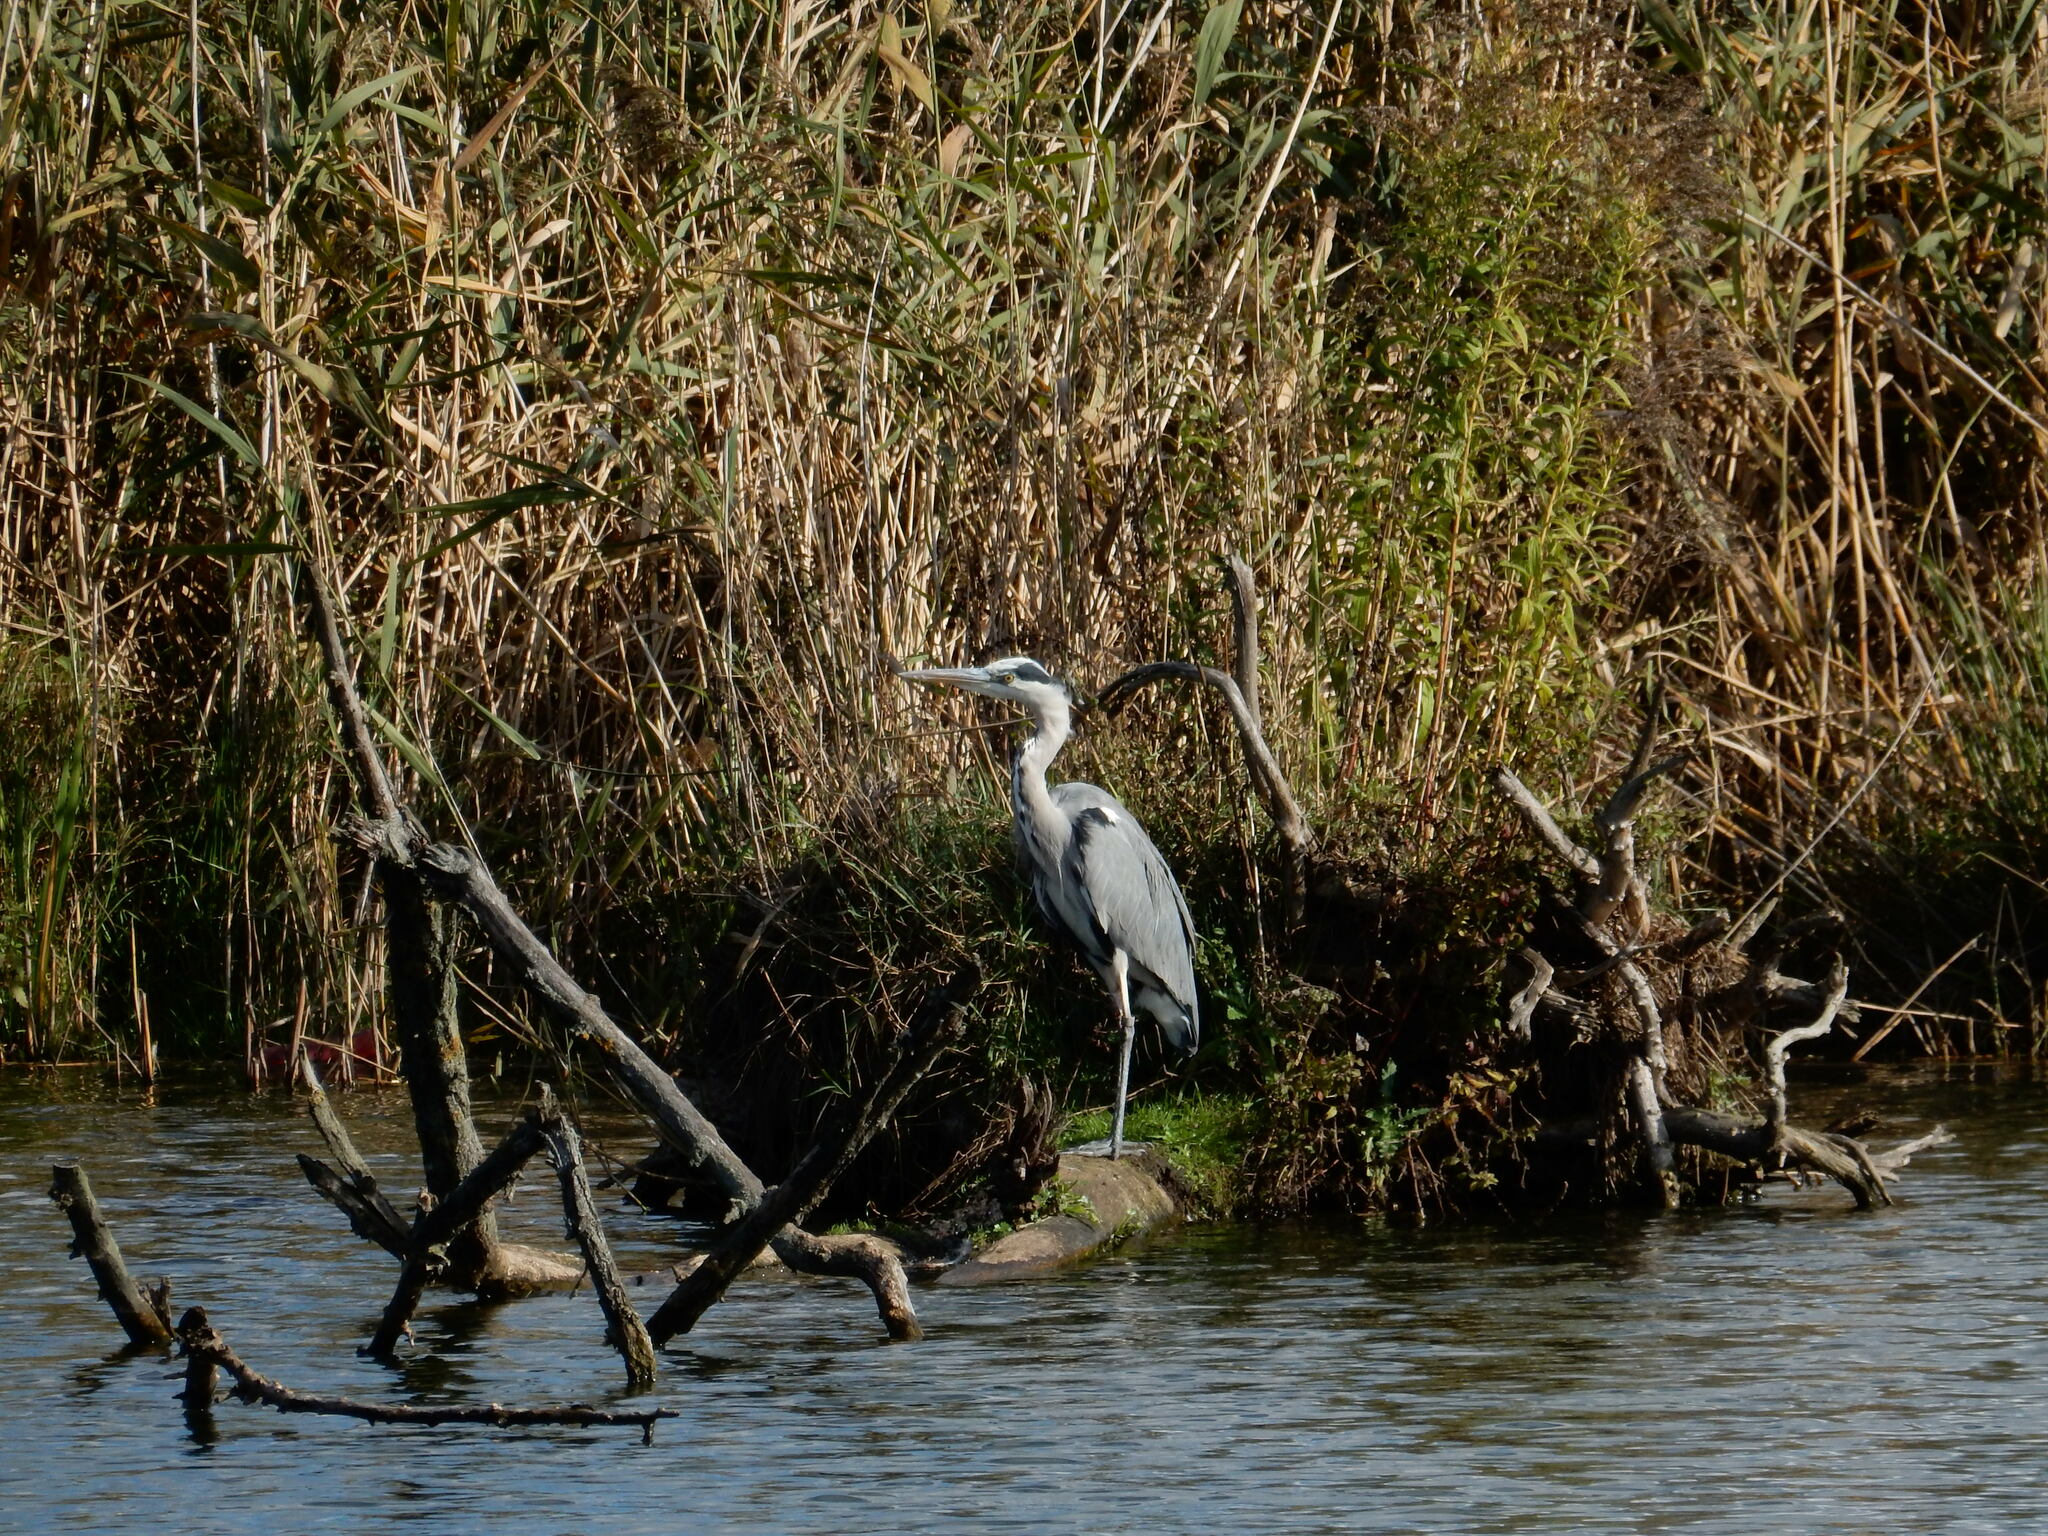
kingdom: Animalia
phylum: Chordata
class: Aves
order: Pelecaniformes
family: Ardeidae
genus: Ardea
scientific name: Ardea cinerea
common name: Grey heron
